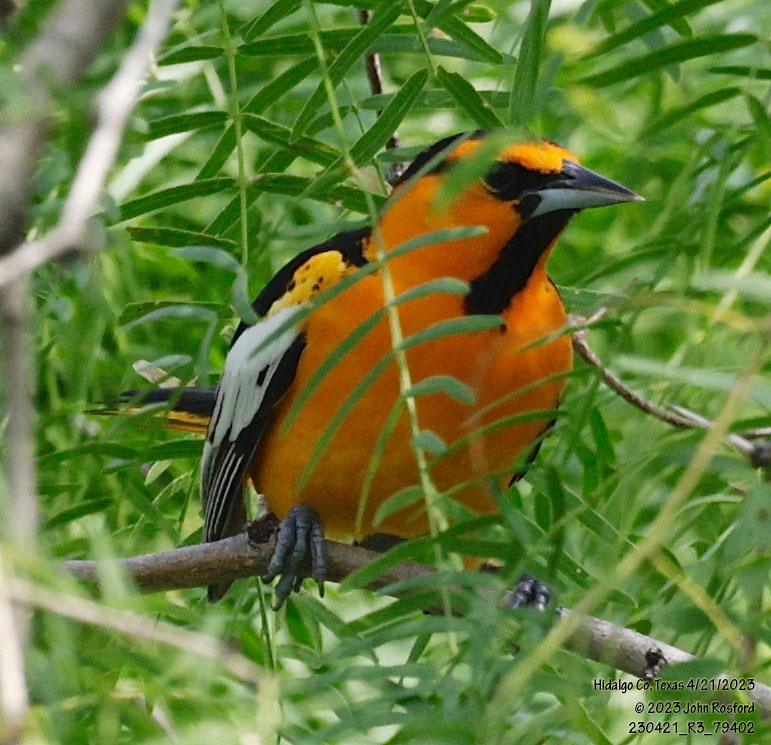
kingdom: Animalia
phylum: Chordata
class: Aves
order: Passeriformes
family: Icteridae
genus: Icterus
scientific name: Icterus bullockii
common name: Bullock's oriole
